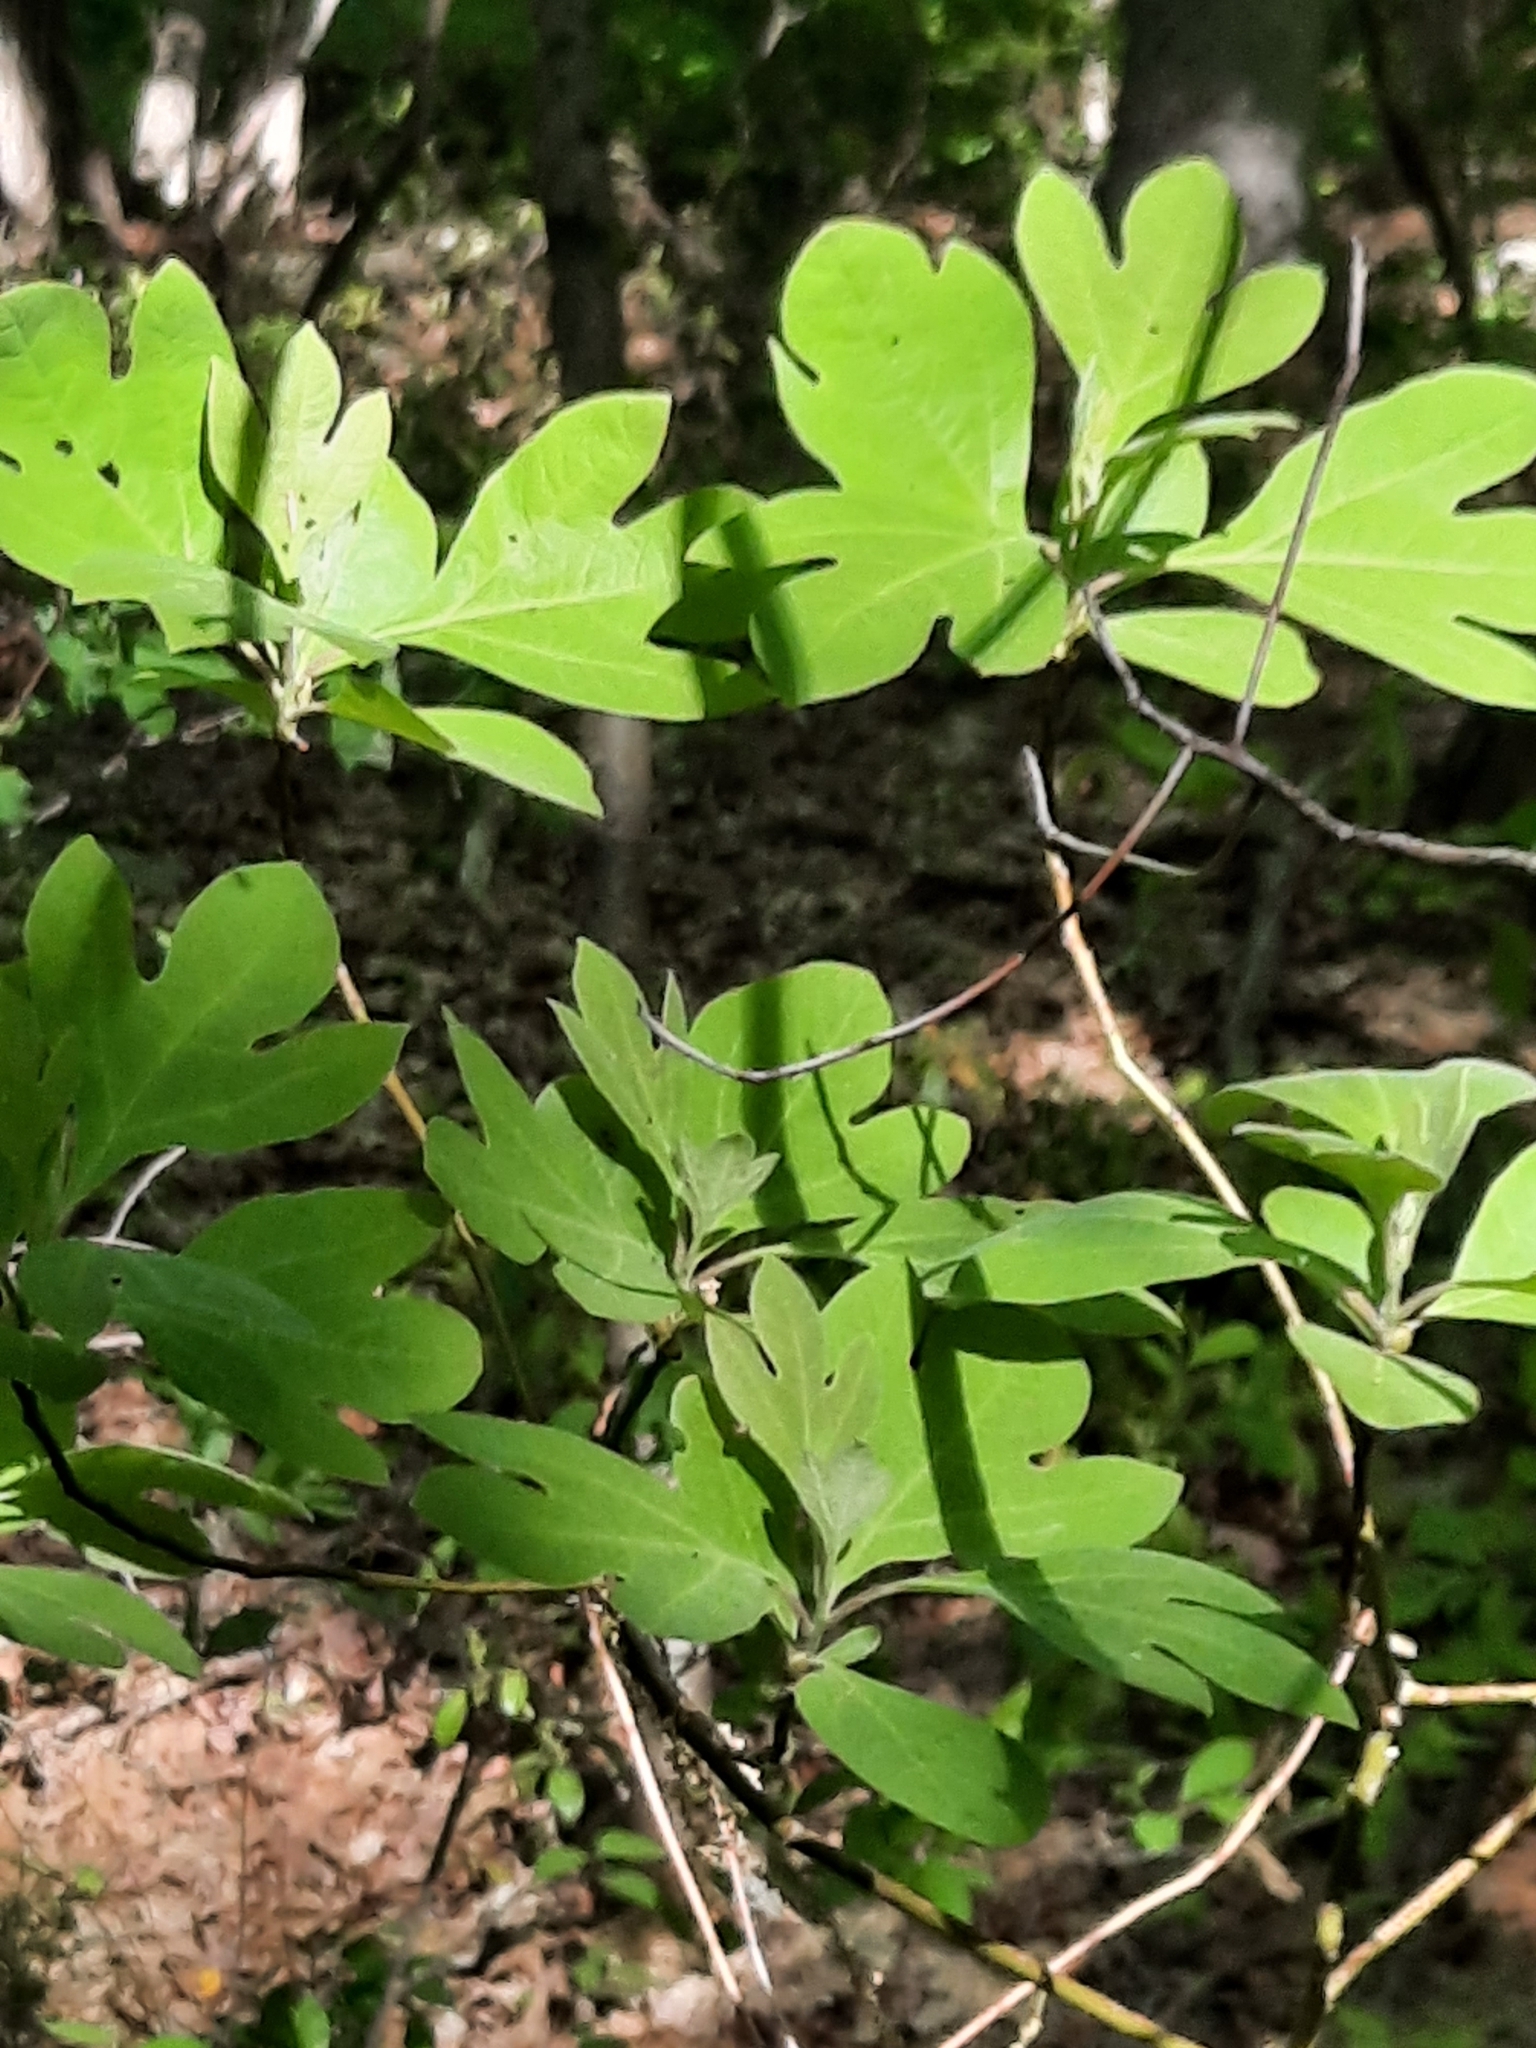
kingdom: Plantae
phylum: Tracheophyta
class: Magnoliopsida
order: Laurales
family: Lauraceae
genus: Sassafras
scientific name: Sassafras albidum
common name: Sassafras
